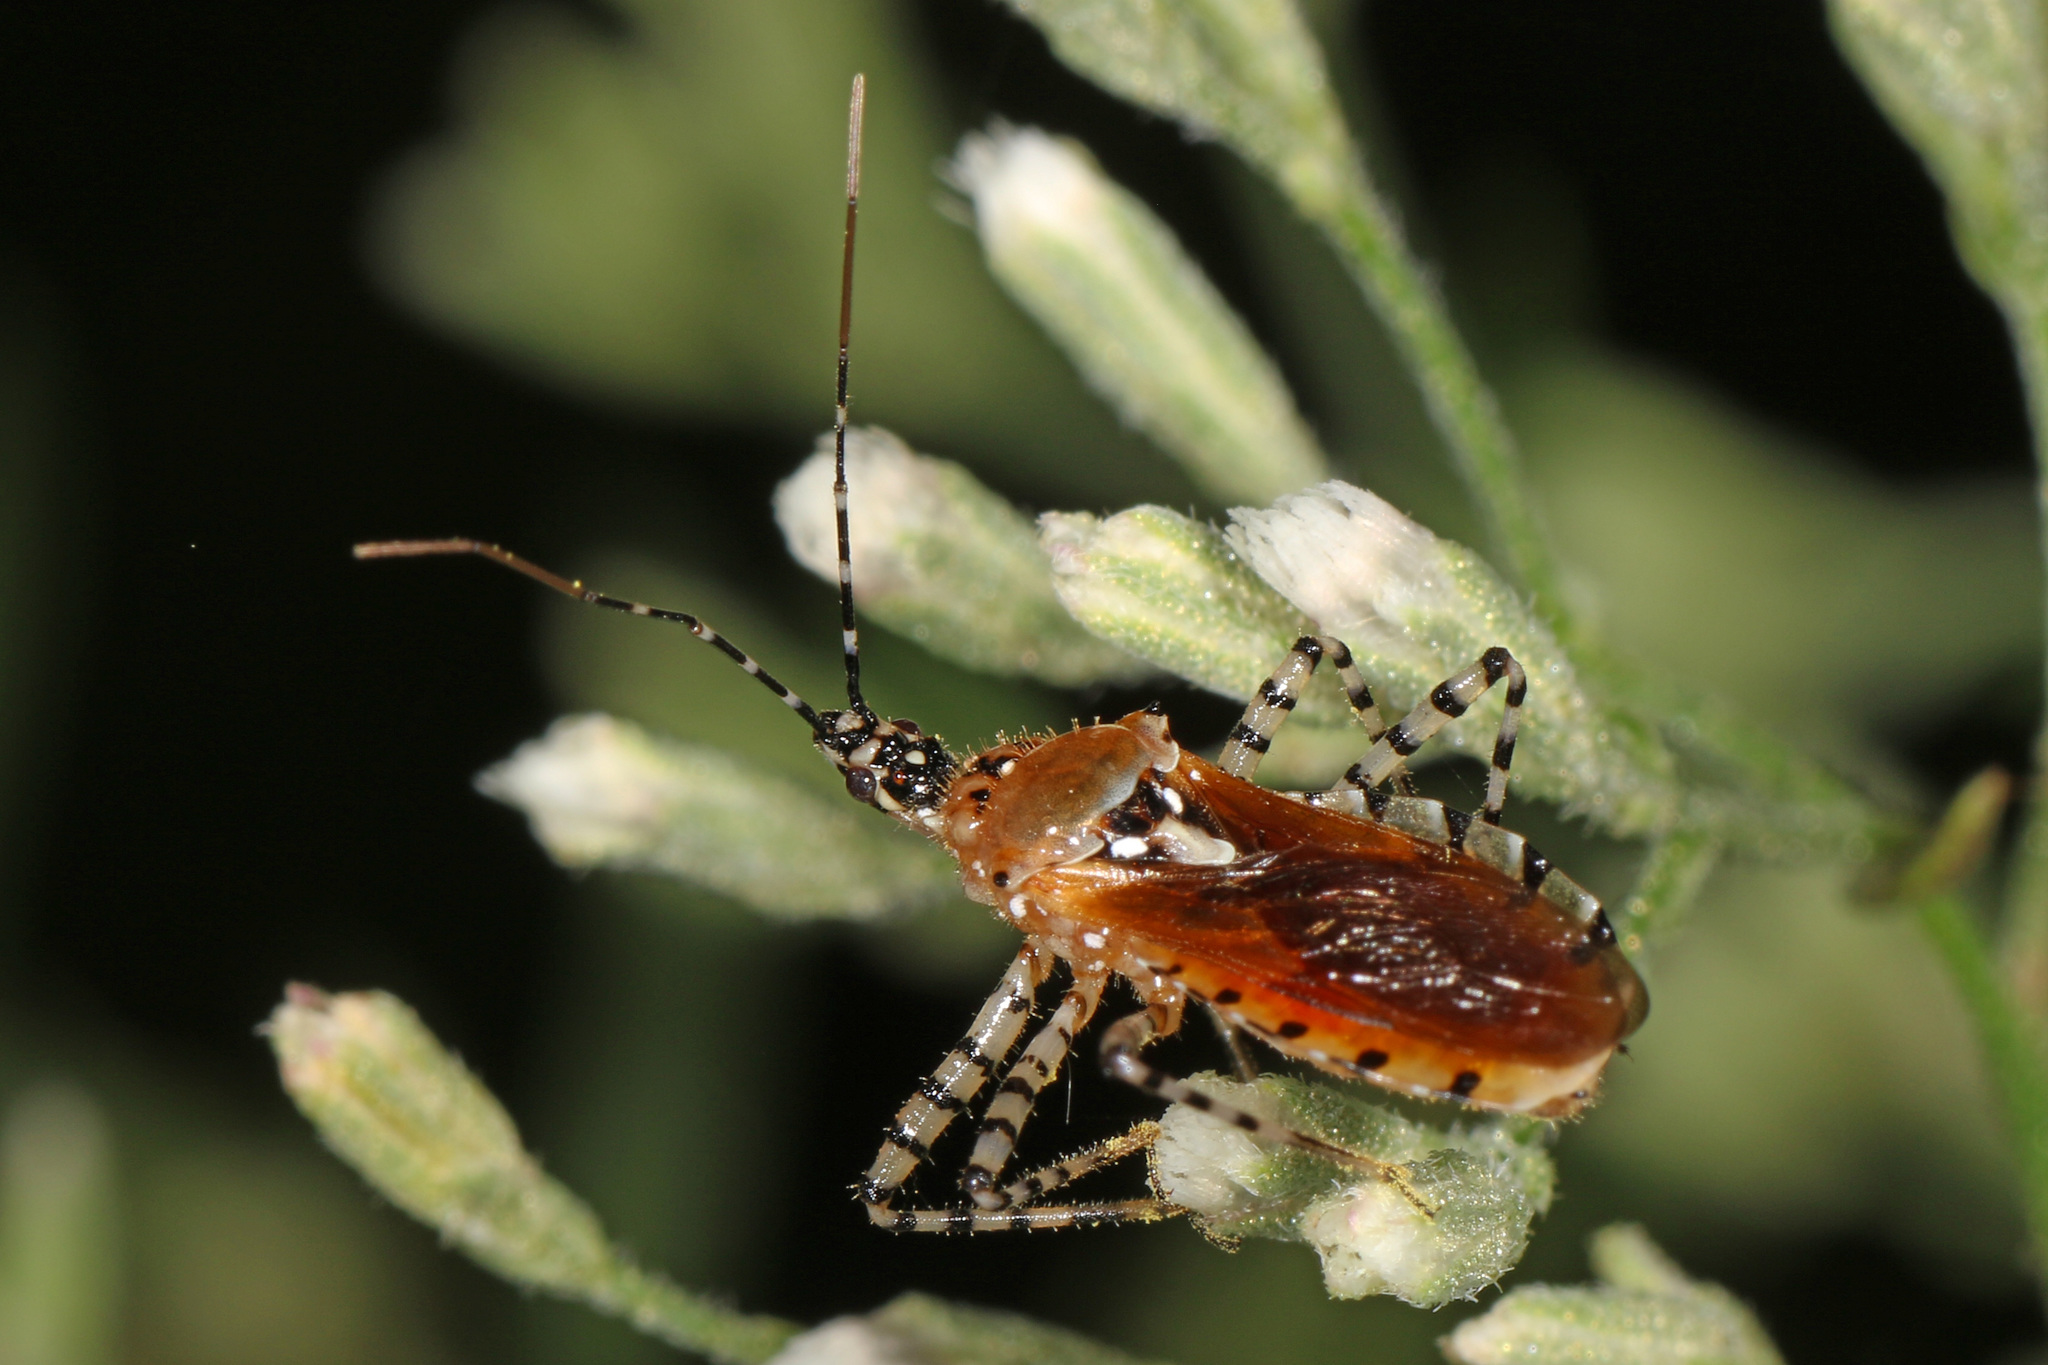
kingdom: Animalia
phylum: Arthropoda
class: Insecta
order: Hemiptera
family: Reduviidae
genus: Pselliopus
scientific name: Pselliopus cinctus
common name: Ringed assassin bug
